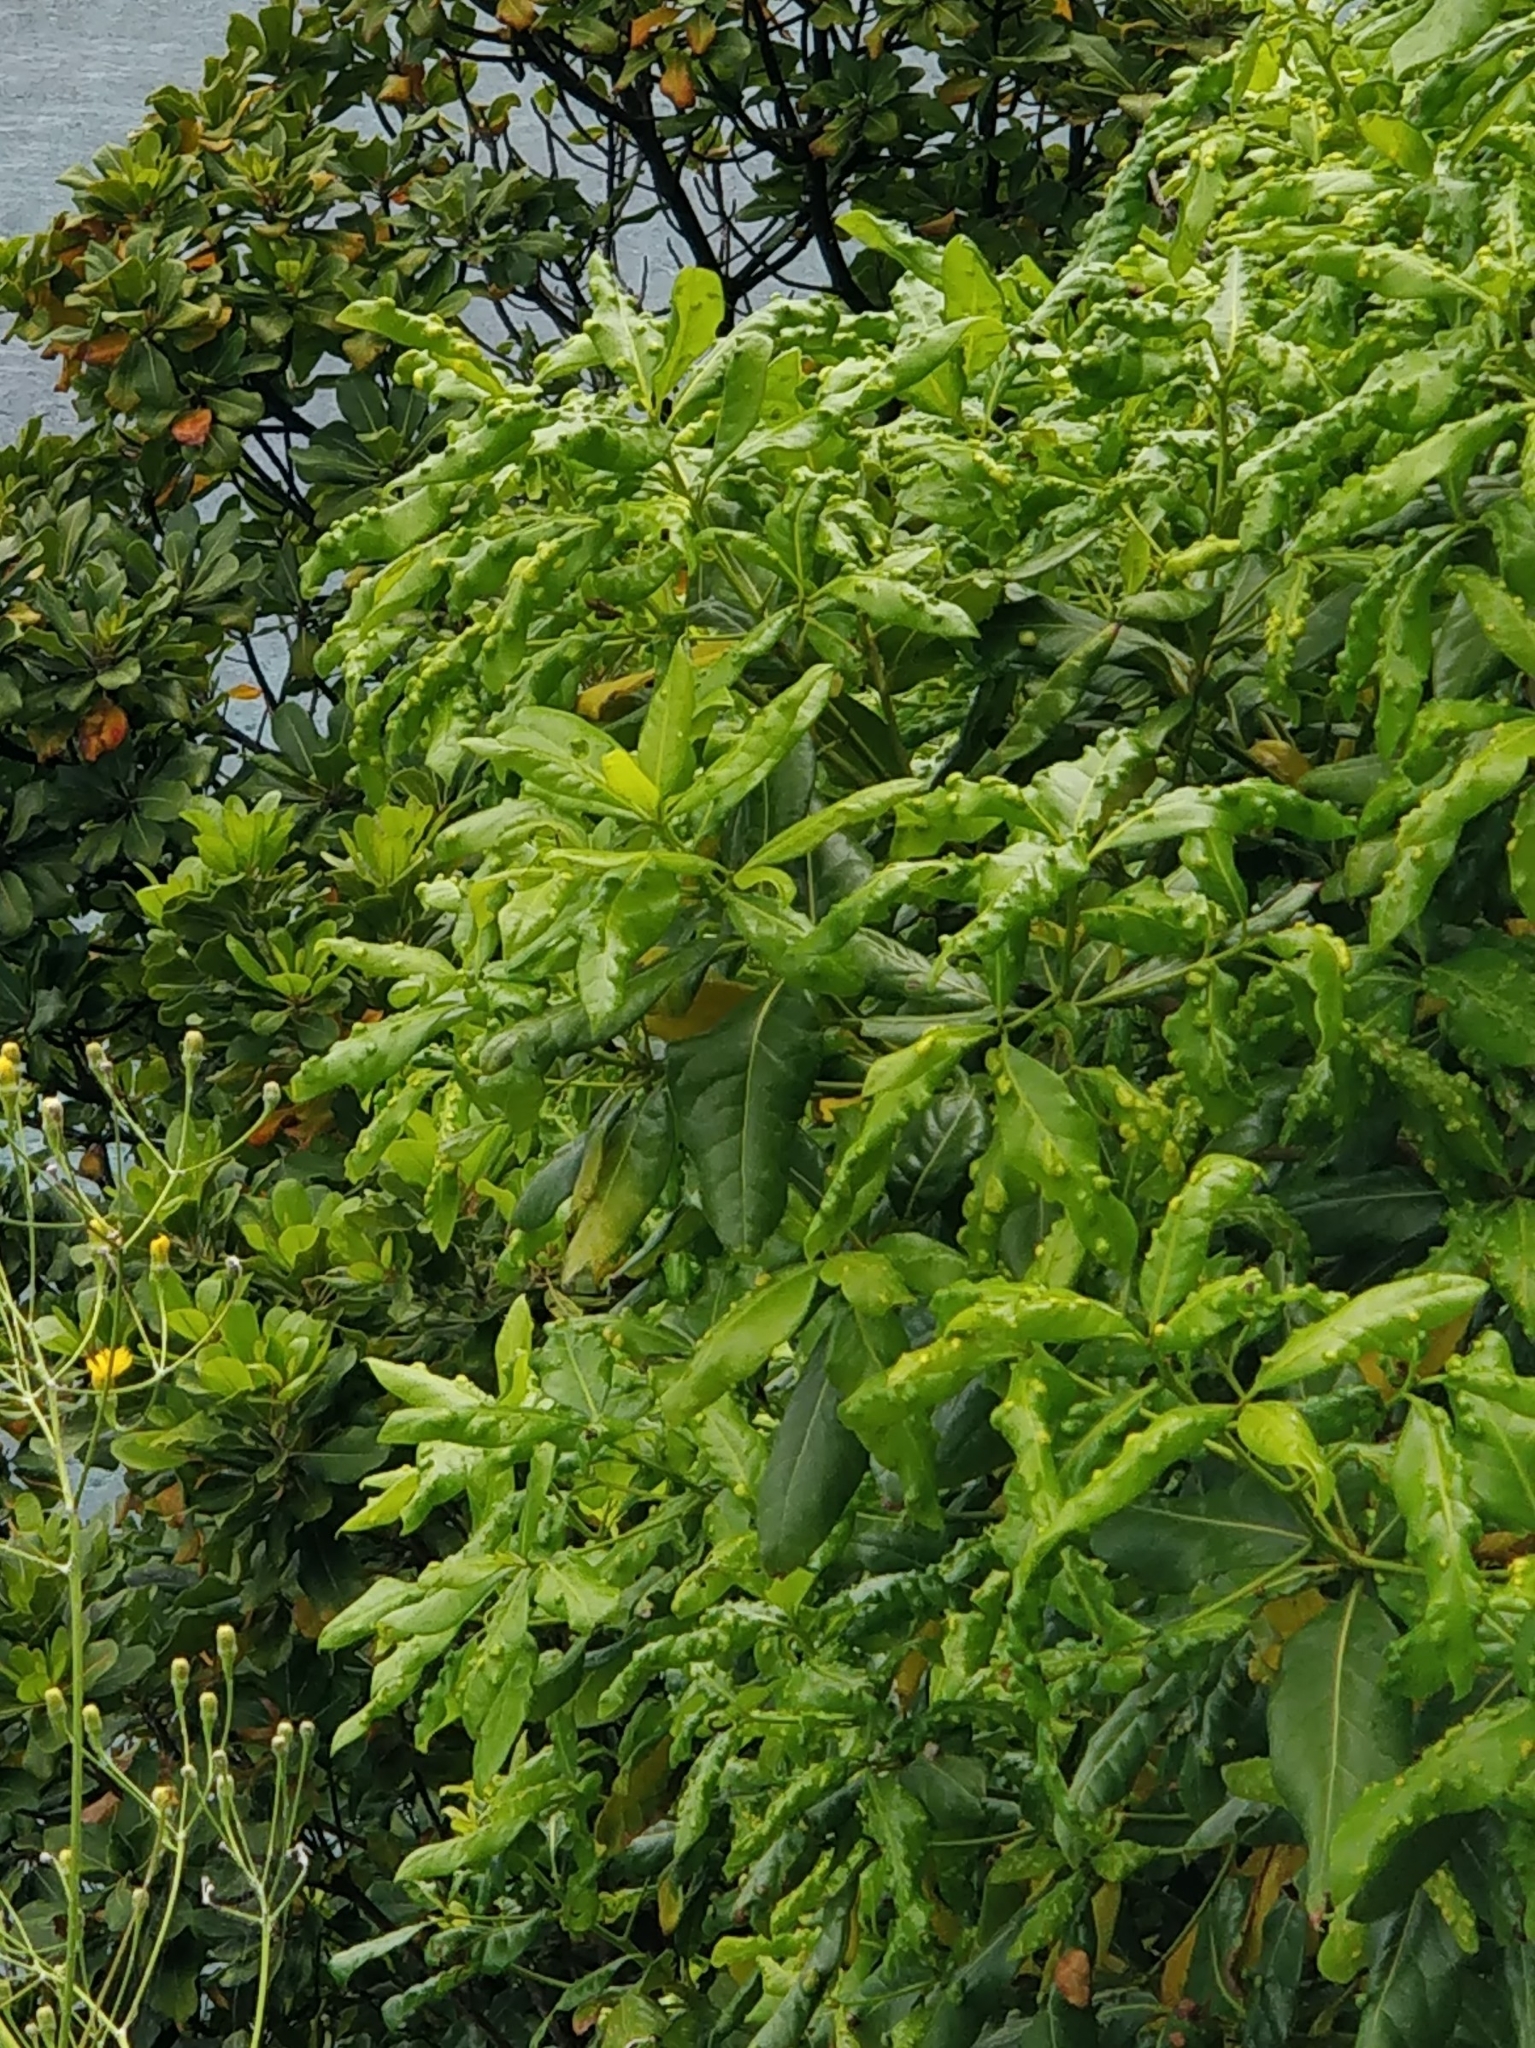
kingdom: Plantae
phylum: Tracheophyta
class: Magnoliopsida
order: Laurales
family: Lauraceae
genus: Apollonias
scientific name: Apollonias barbujana
